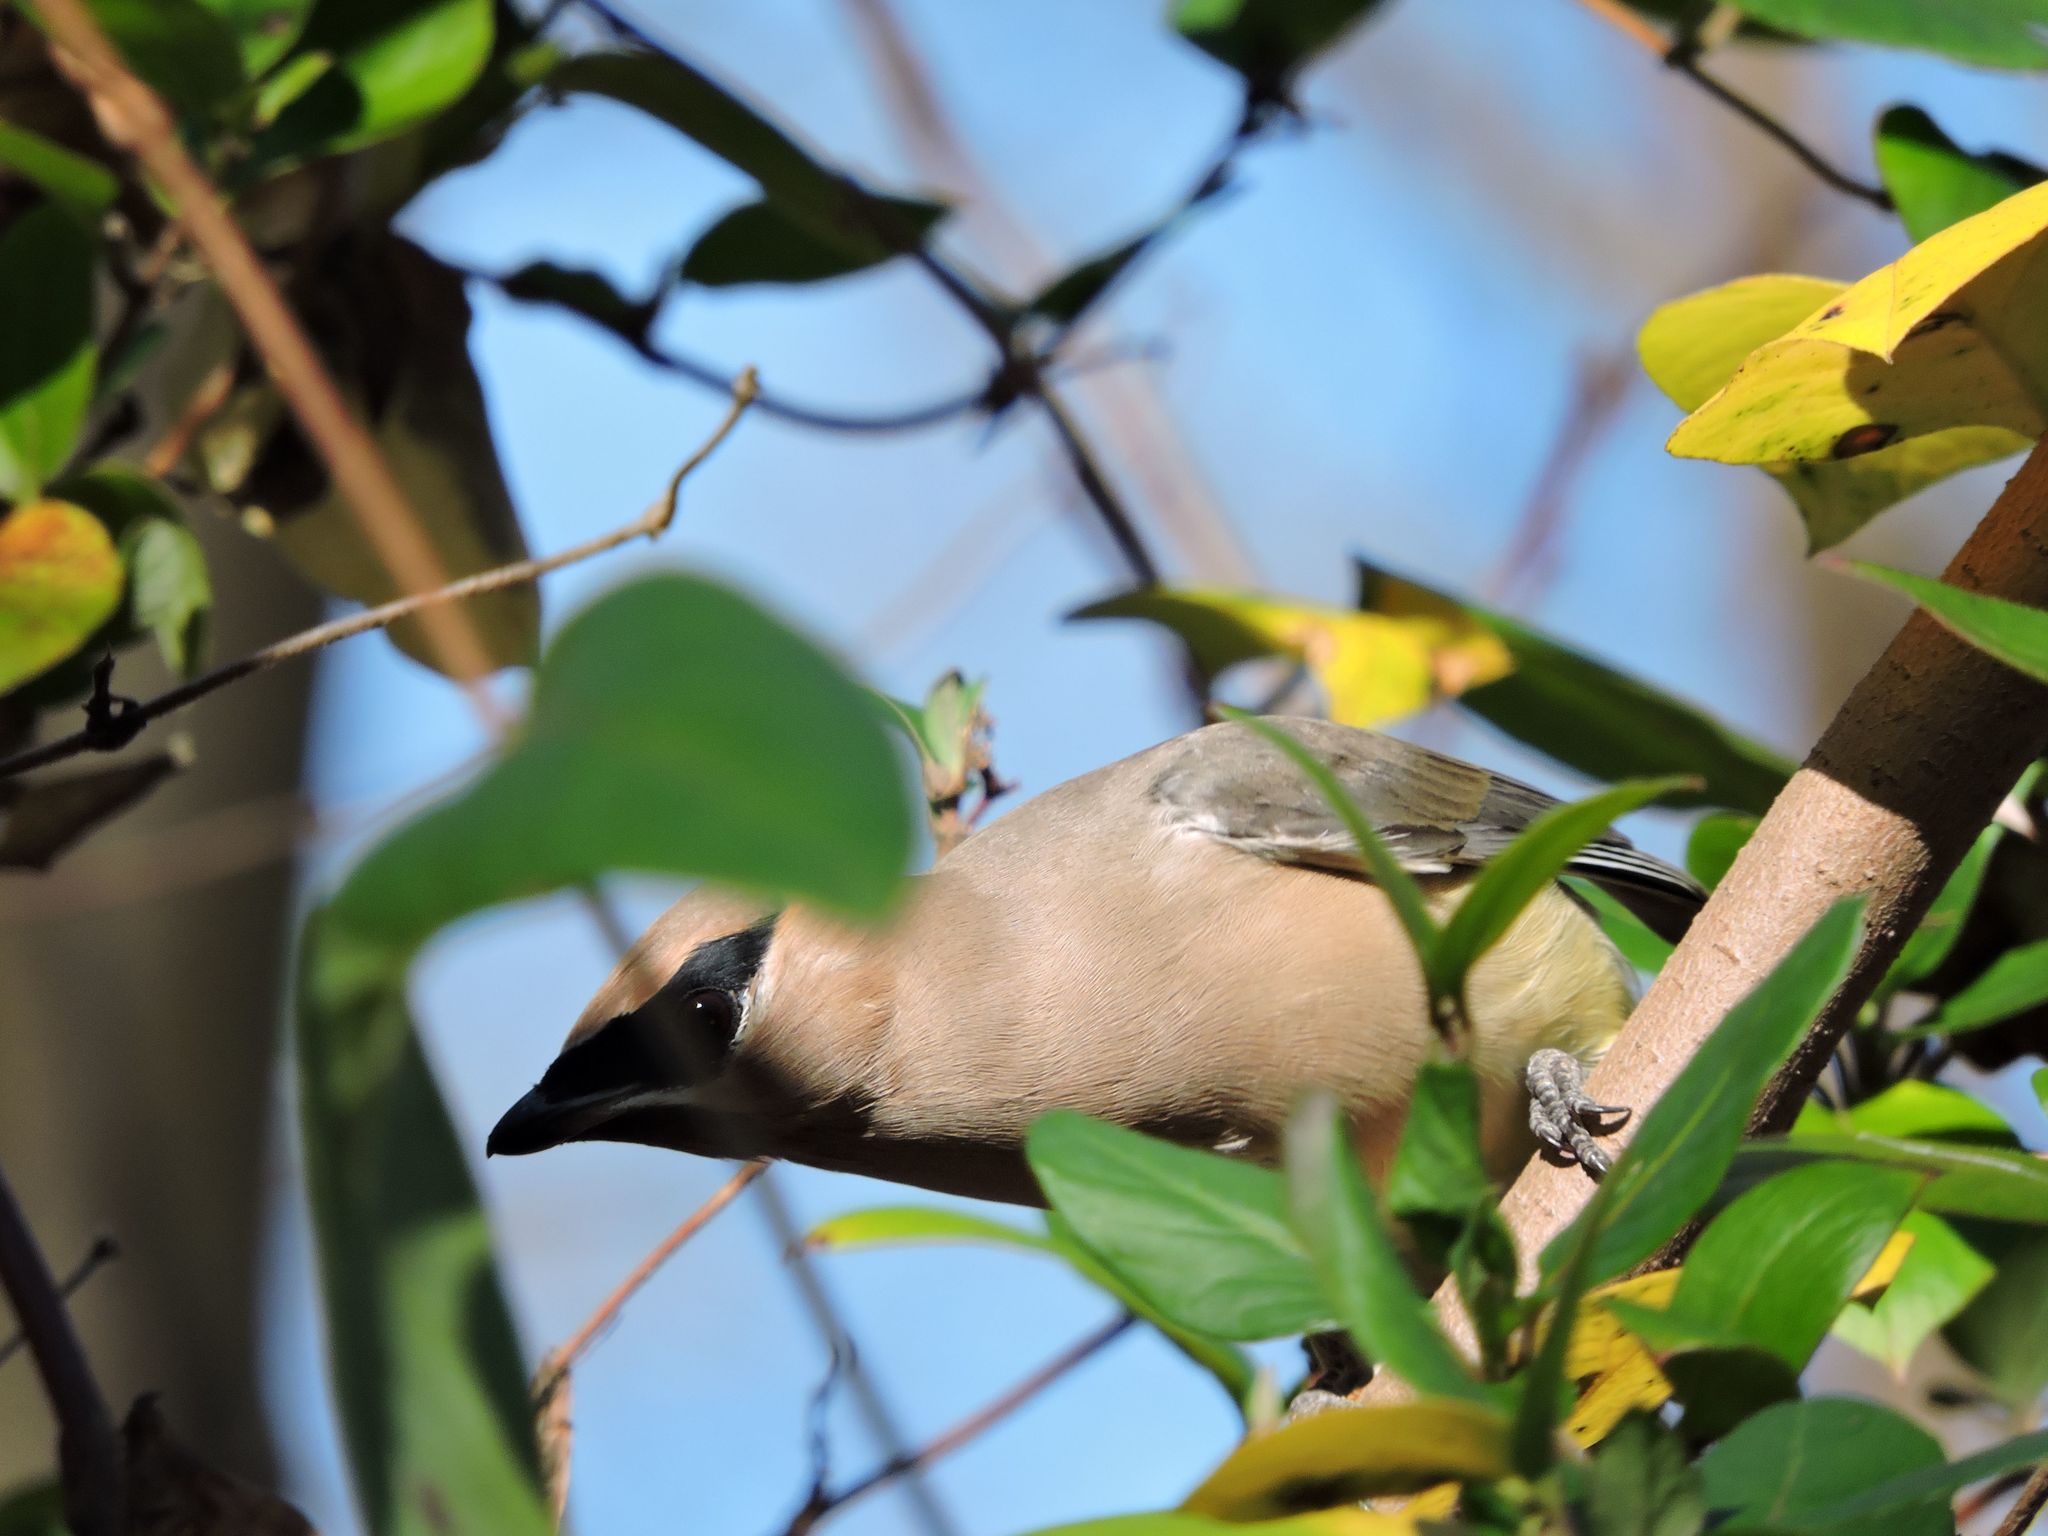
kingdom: Animalia
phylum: Chordata
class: Aves
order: Passeriformes
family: Bombycillidae
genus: Bombycilla
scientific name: Bombycilla cedrorum
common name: Cedar waxwing
